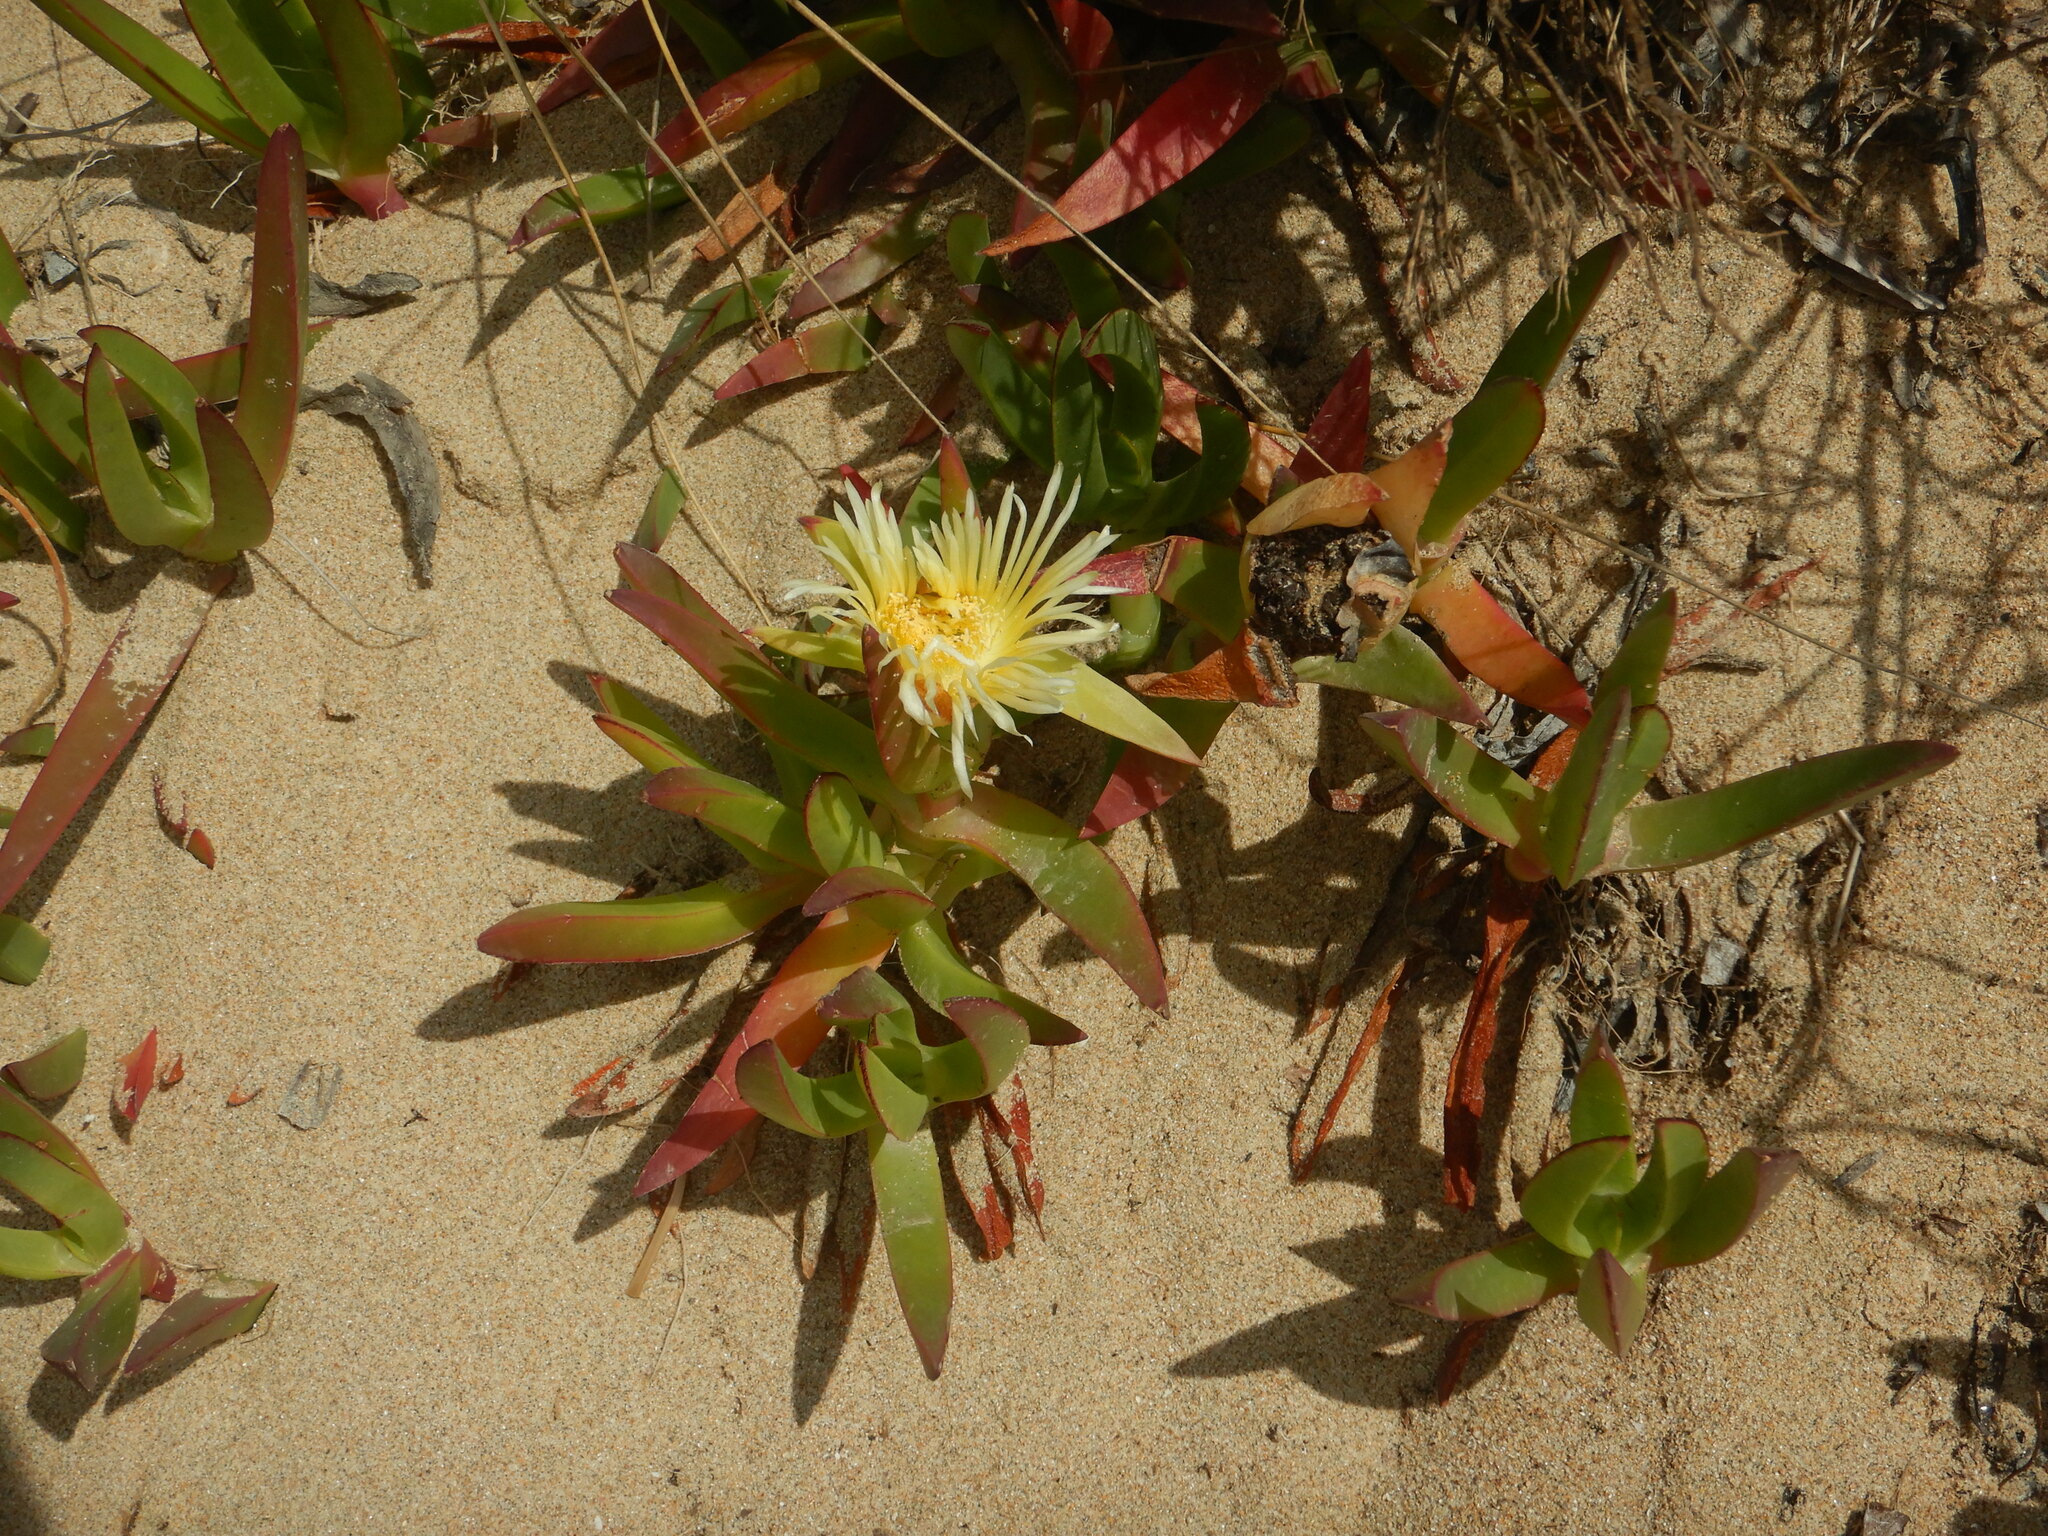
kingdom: Plantae
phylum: Tracheophyta
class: Magnoliopsida
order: Caryophyllales
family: Aizoaceae
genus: Carpobrotus
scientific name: Carpobrotus edulis
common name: Hottentot-fig
